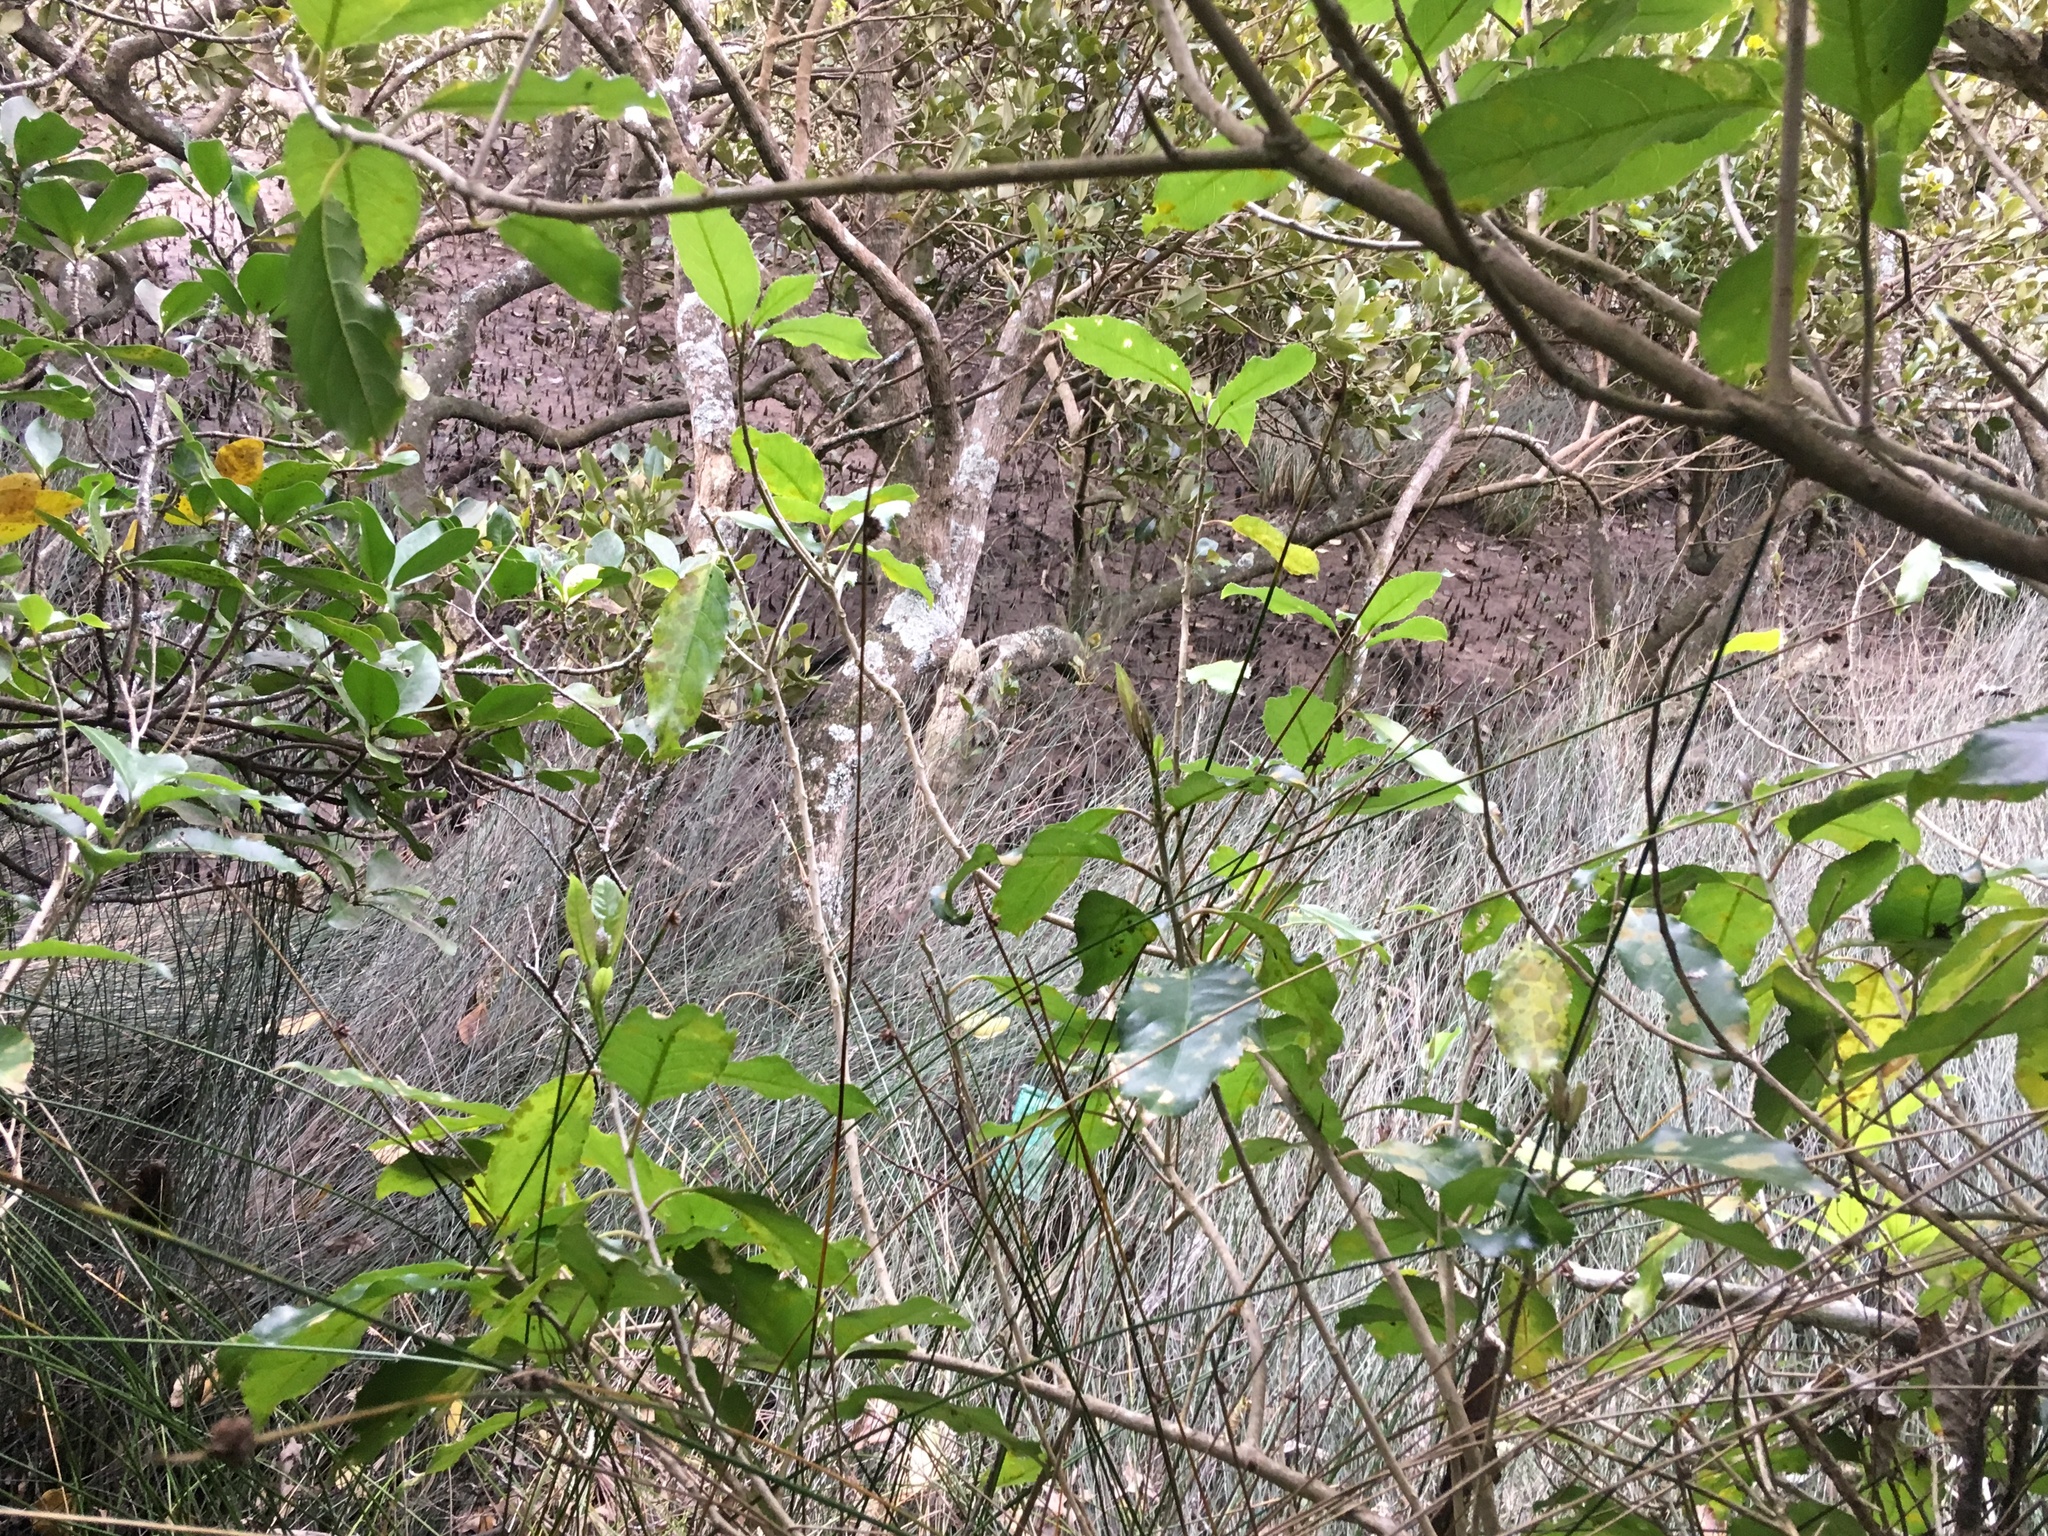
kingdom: Plantae
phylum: Tracheophyta
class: Magnoliopsida
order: Lamiales
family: Acanthaceae
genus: Avicennia
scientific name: Avicennia marina
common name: Gray mangrove
